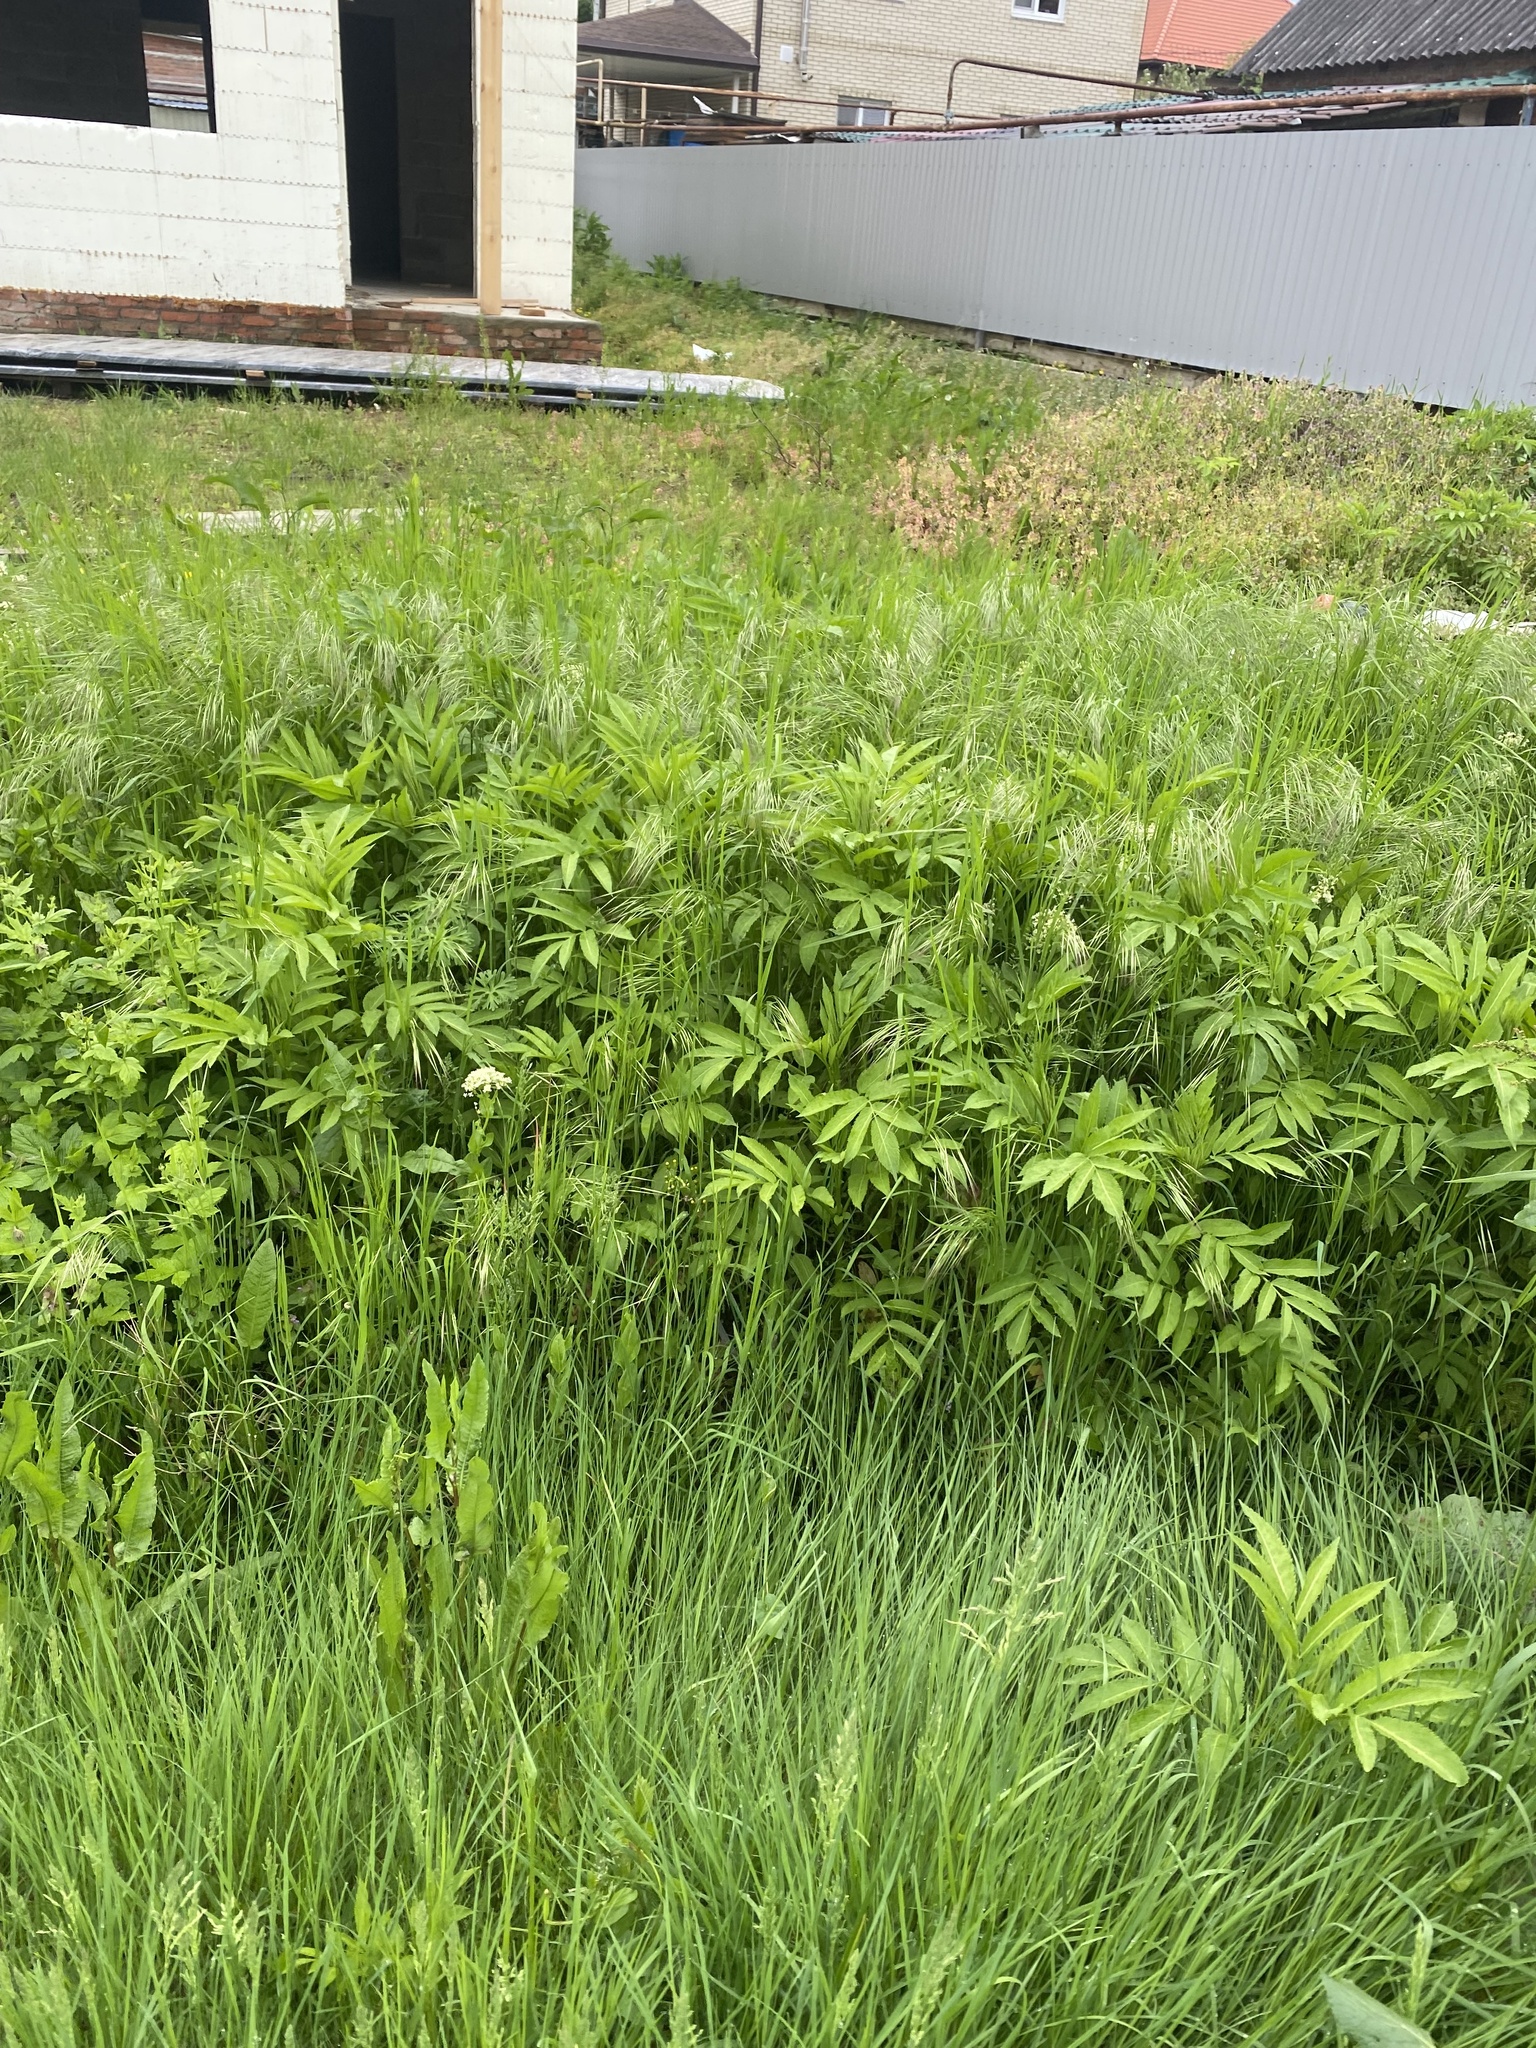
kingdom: Plantae
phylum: Tracheophyta
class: Magnoliopsida
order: Dipsacales
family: Viburnaceae
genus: Sambucus
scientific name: Sambucus ebulus
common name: Dwarf elder
